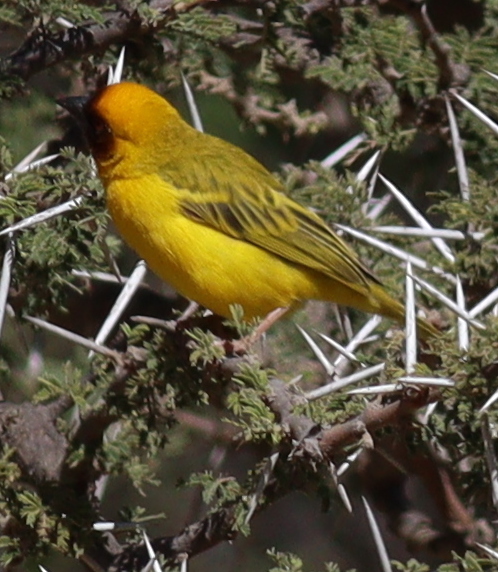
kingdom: Animalia
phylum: Chordata
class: Aves
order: Passeriformes
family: Ploceidae
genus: Ploceus
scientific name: Ploceus galbula
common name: Rüppell's weaver
